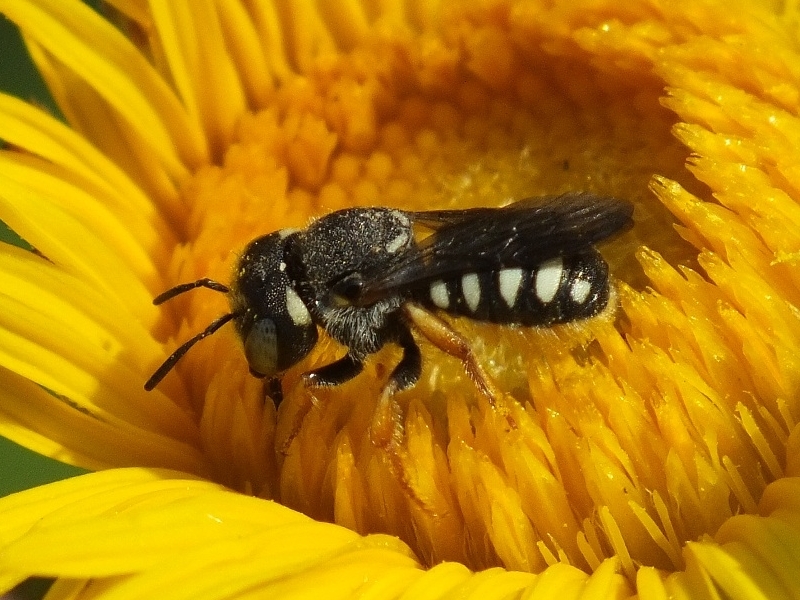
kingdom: Animalia
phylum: Arthropoda
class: Insecta
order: Hymenoptera
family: Megachilidae
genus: Pseudoanthidium
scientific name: Pseudoanthidium nanum
